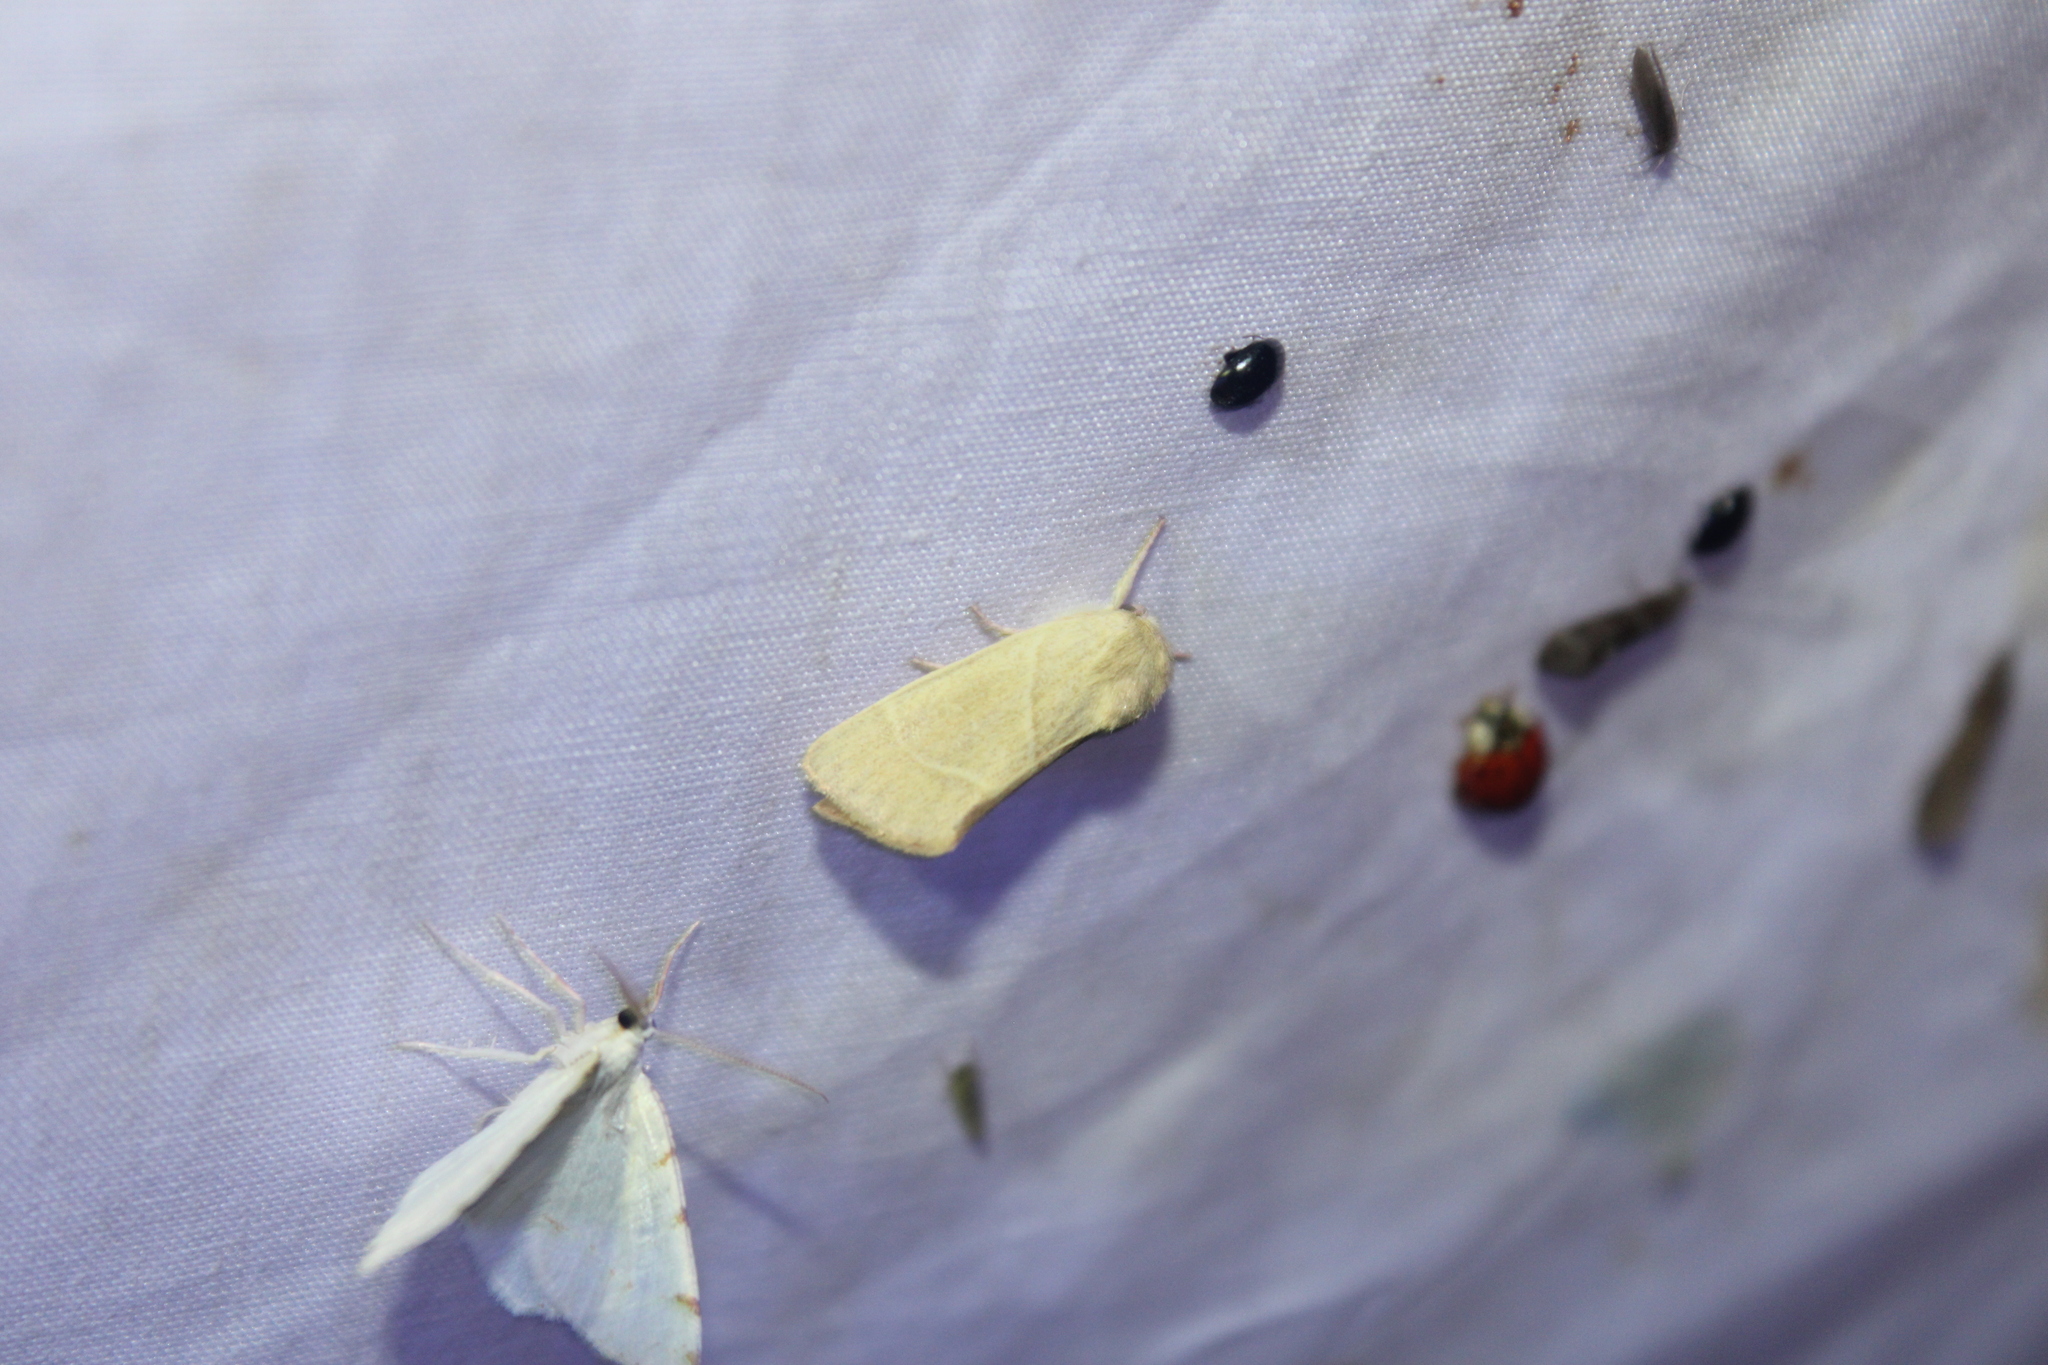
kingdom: Animalia
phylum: Arthropoda
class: Insecta
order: Lepidoptera
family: Noctuidae
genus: Cosmia
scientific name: Cosmia calami
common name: American dun-bar moth
